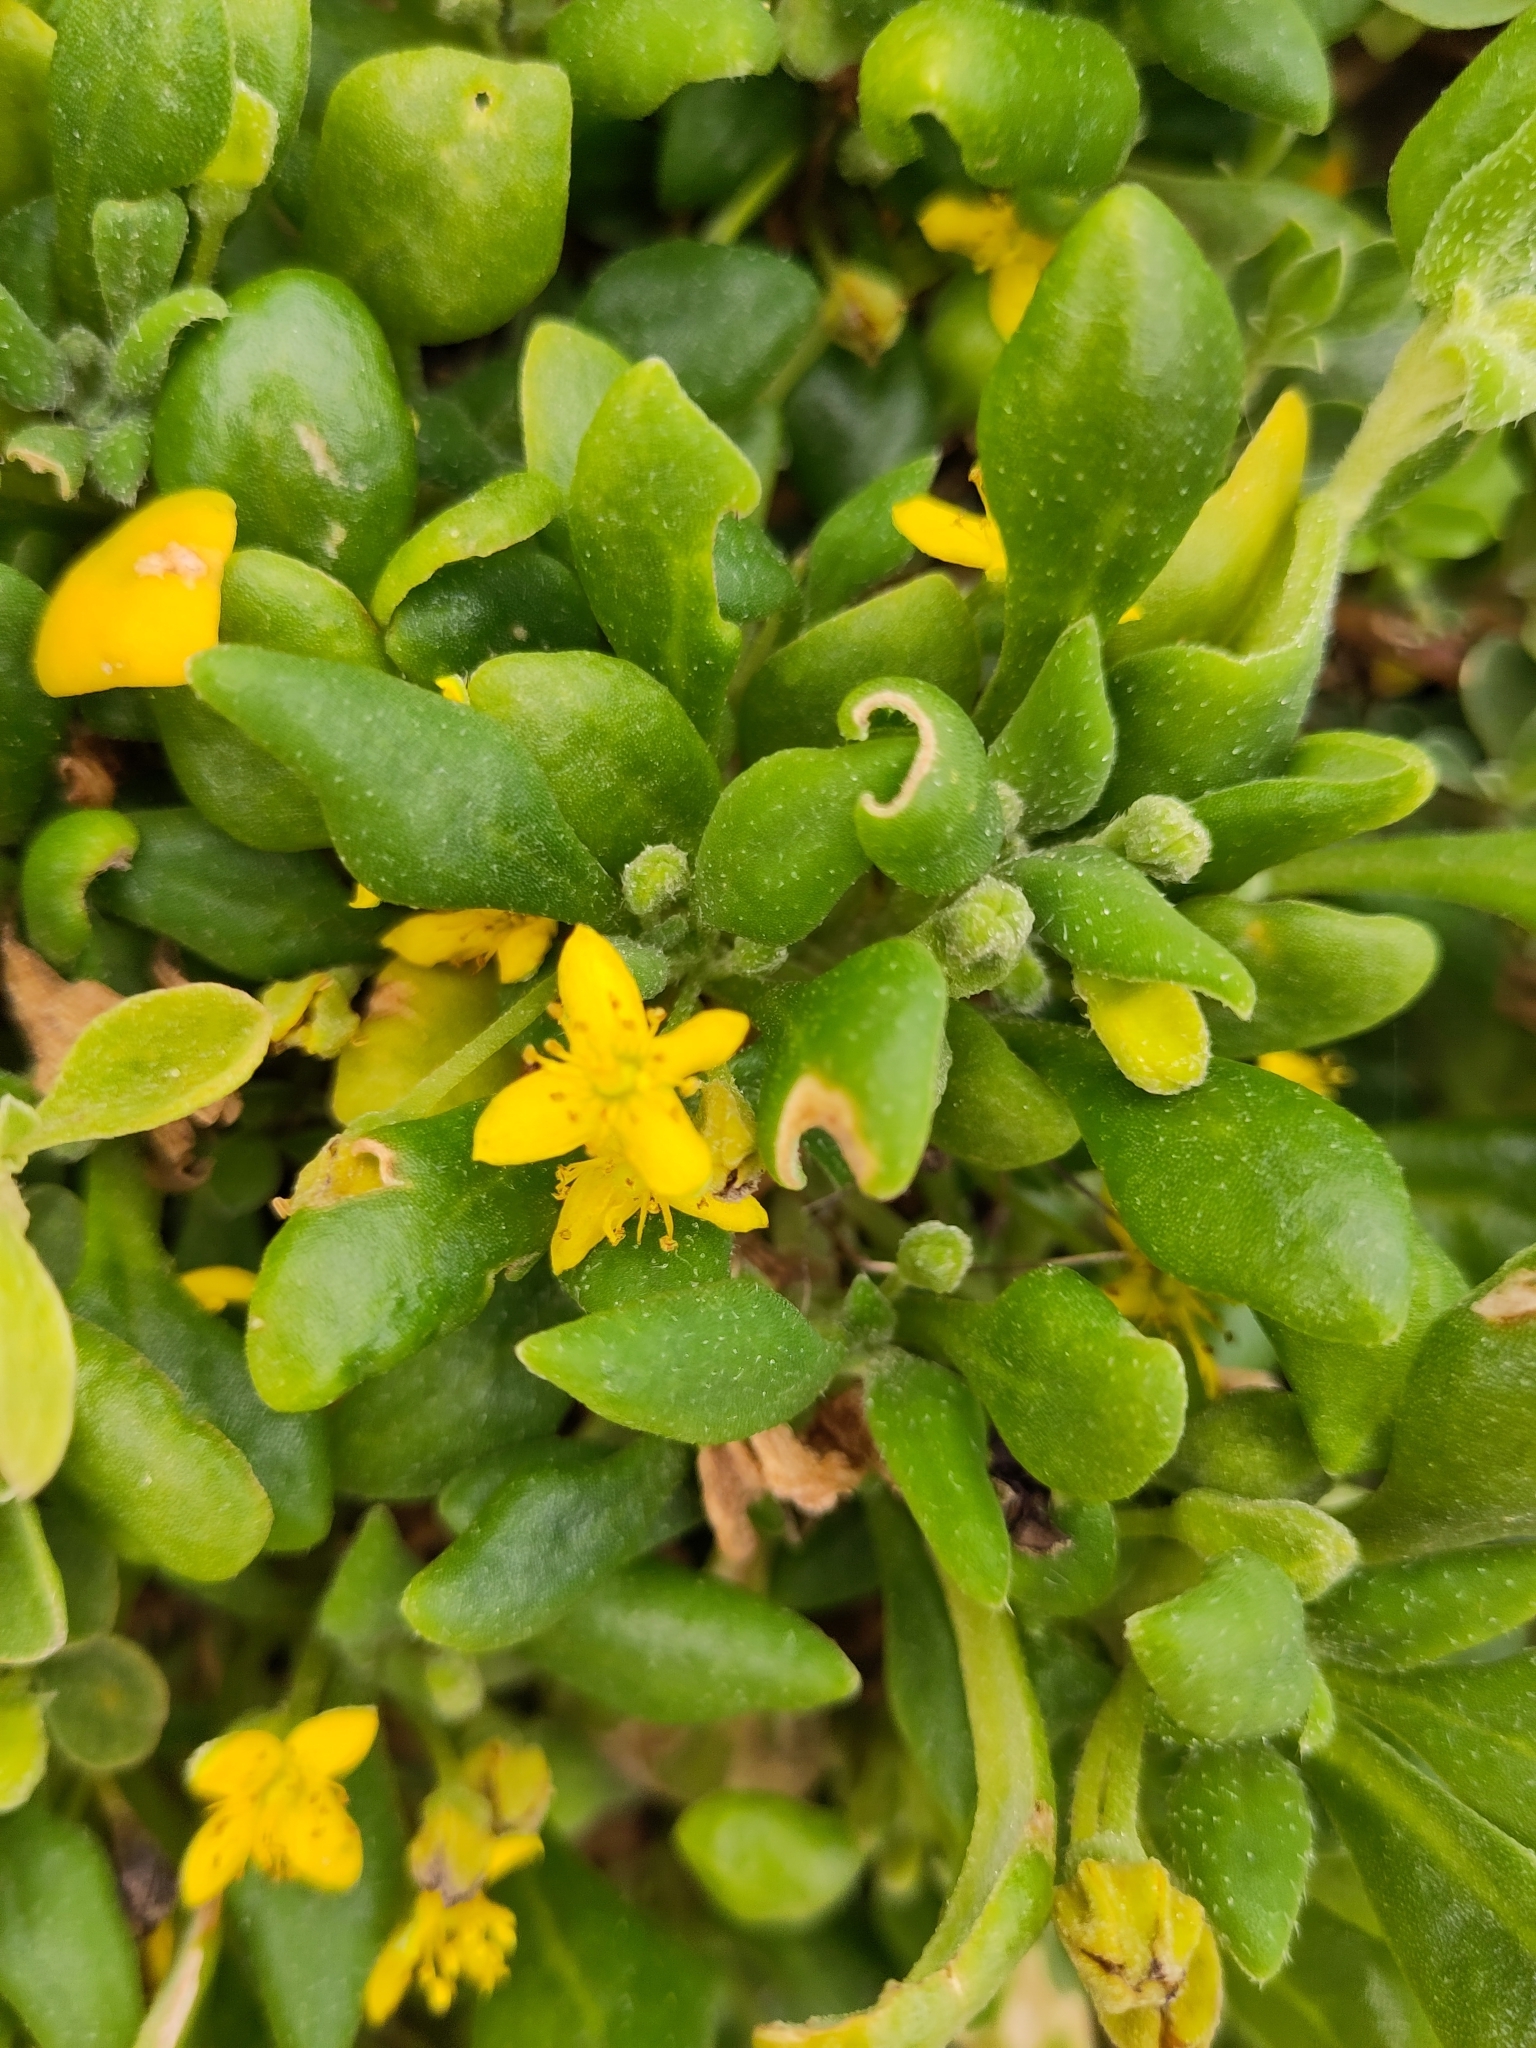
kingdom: Plantae
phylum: Tracheophyta
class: Magnoliopsida
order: Caryophyllales
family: Aizoaceae
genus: Tetragonia
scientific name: Tetragonia implexicoma
